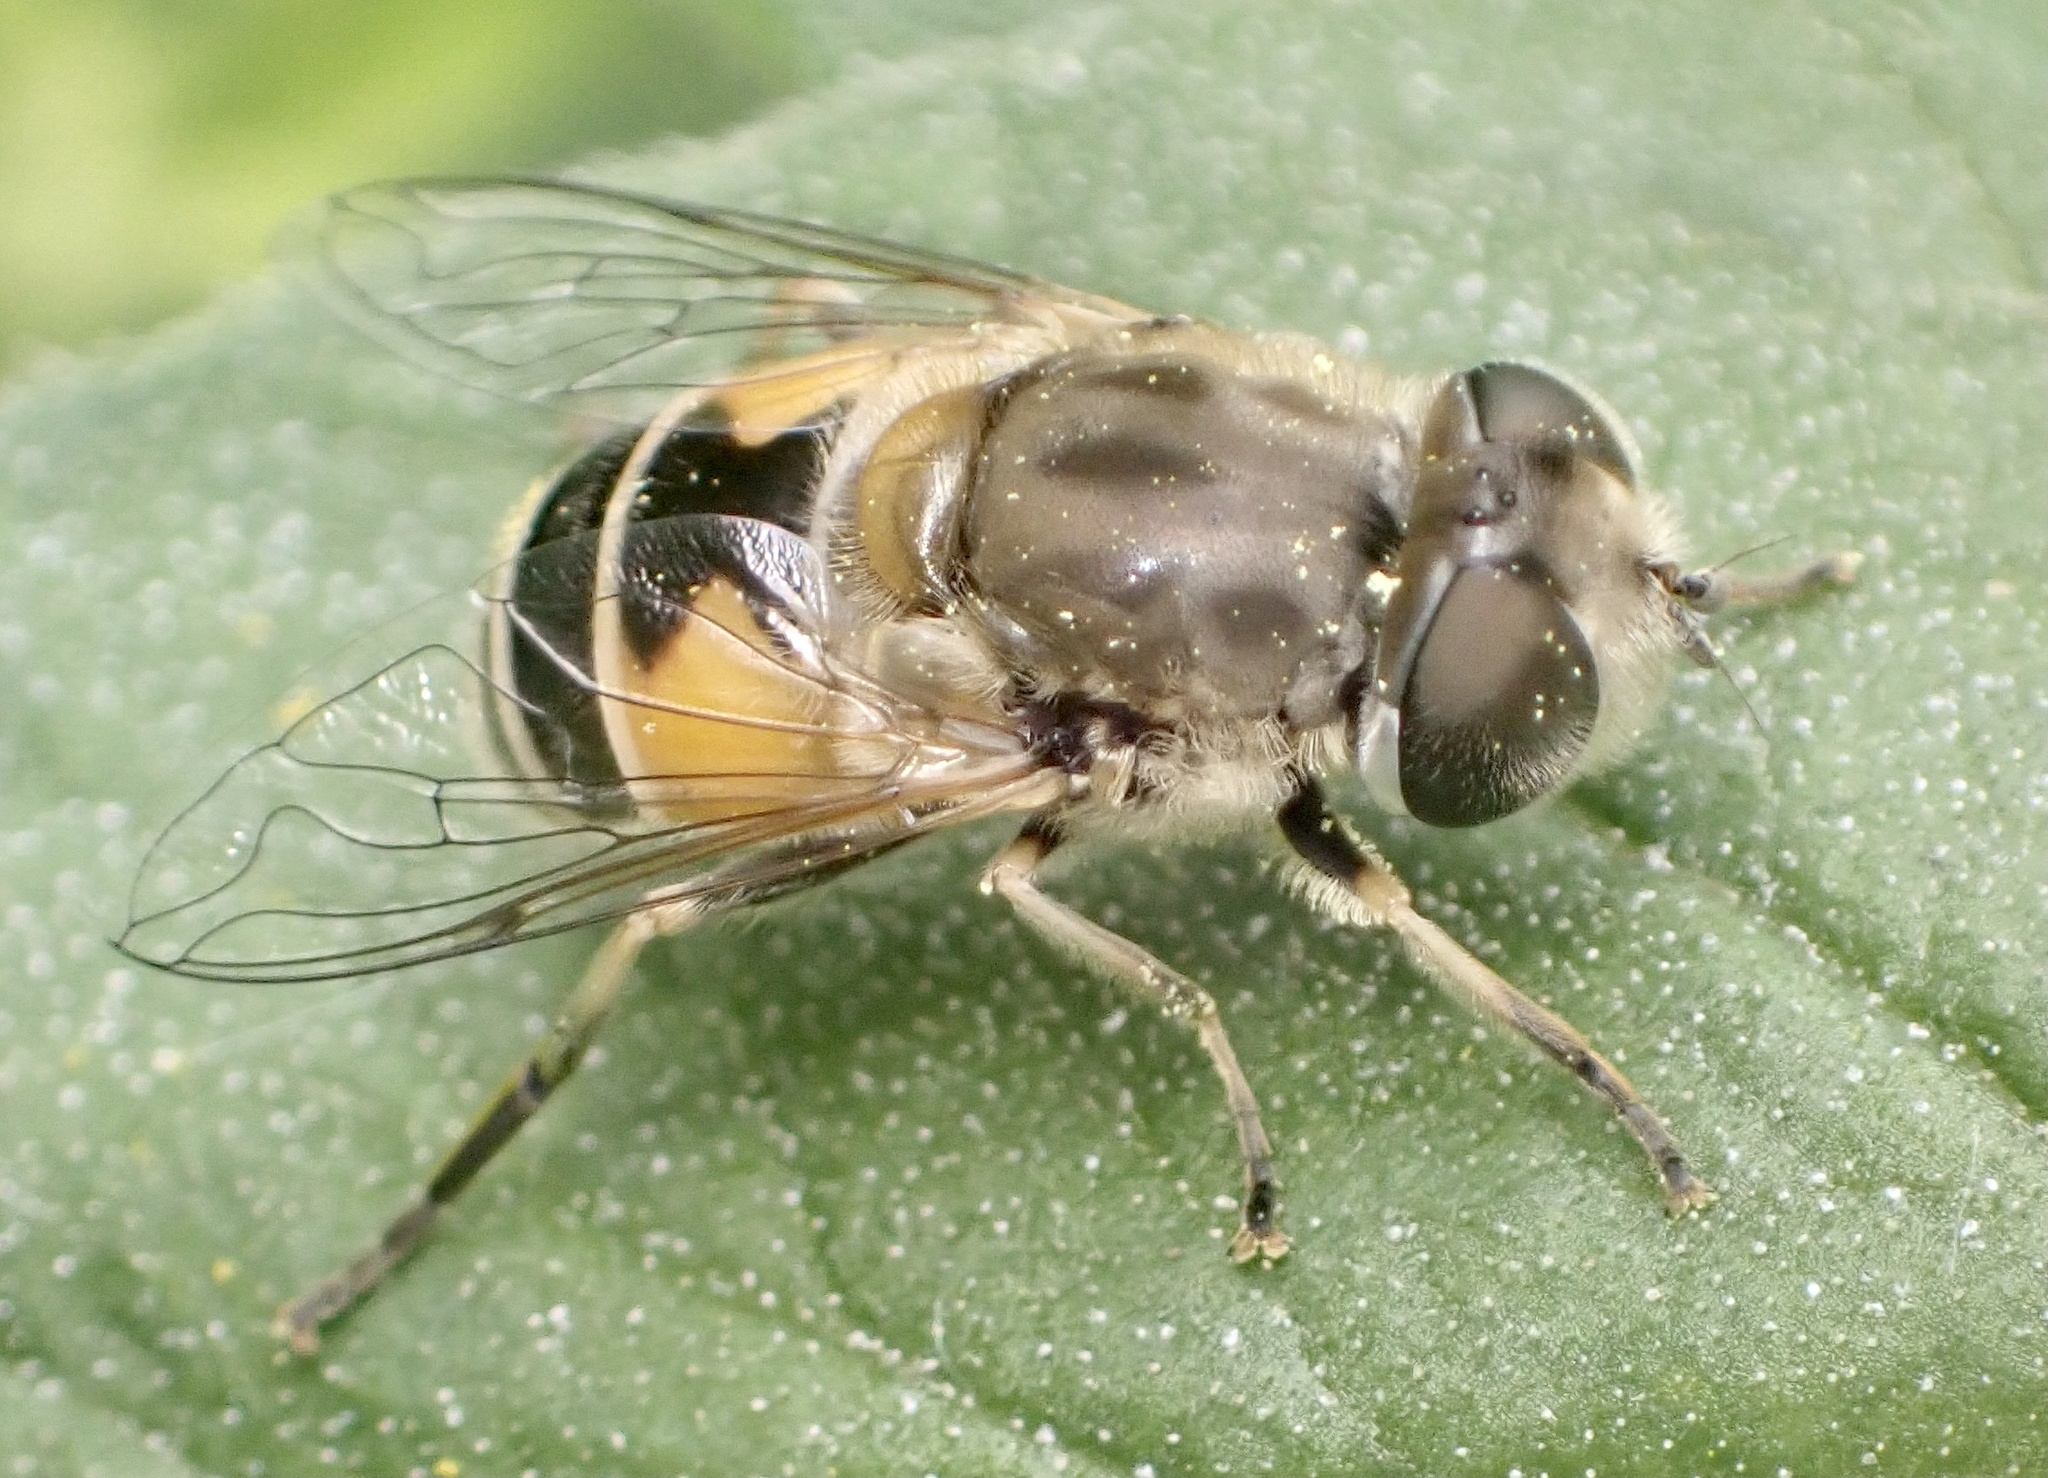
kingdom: Animalia
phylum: Arthropoda
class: Insecta
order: Diptera
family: Syrphidae
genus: Eristalis
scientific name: Eristalis arbustorum
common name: Hover fly
